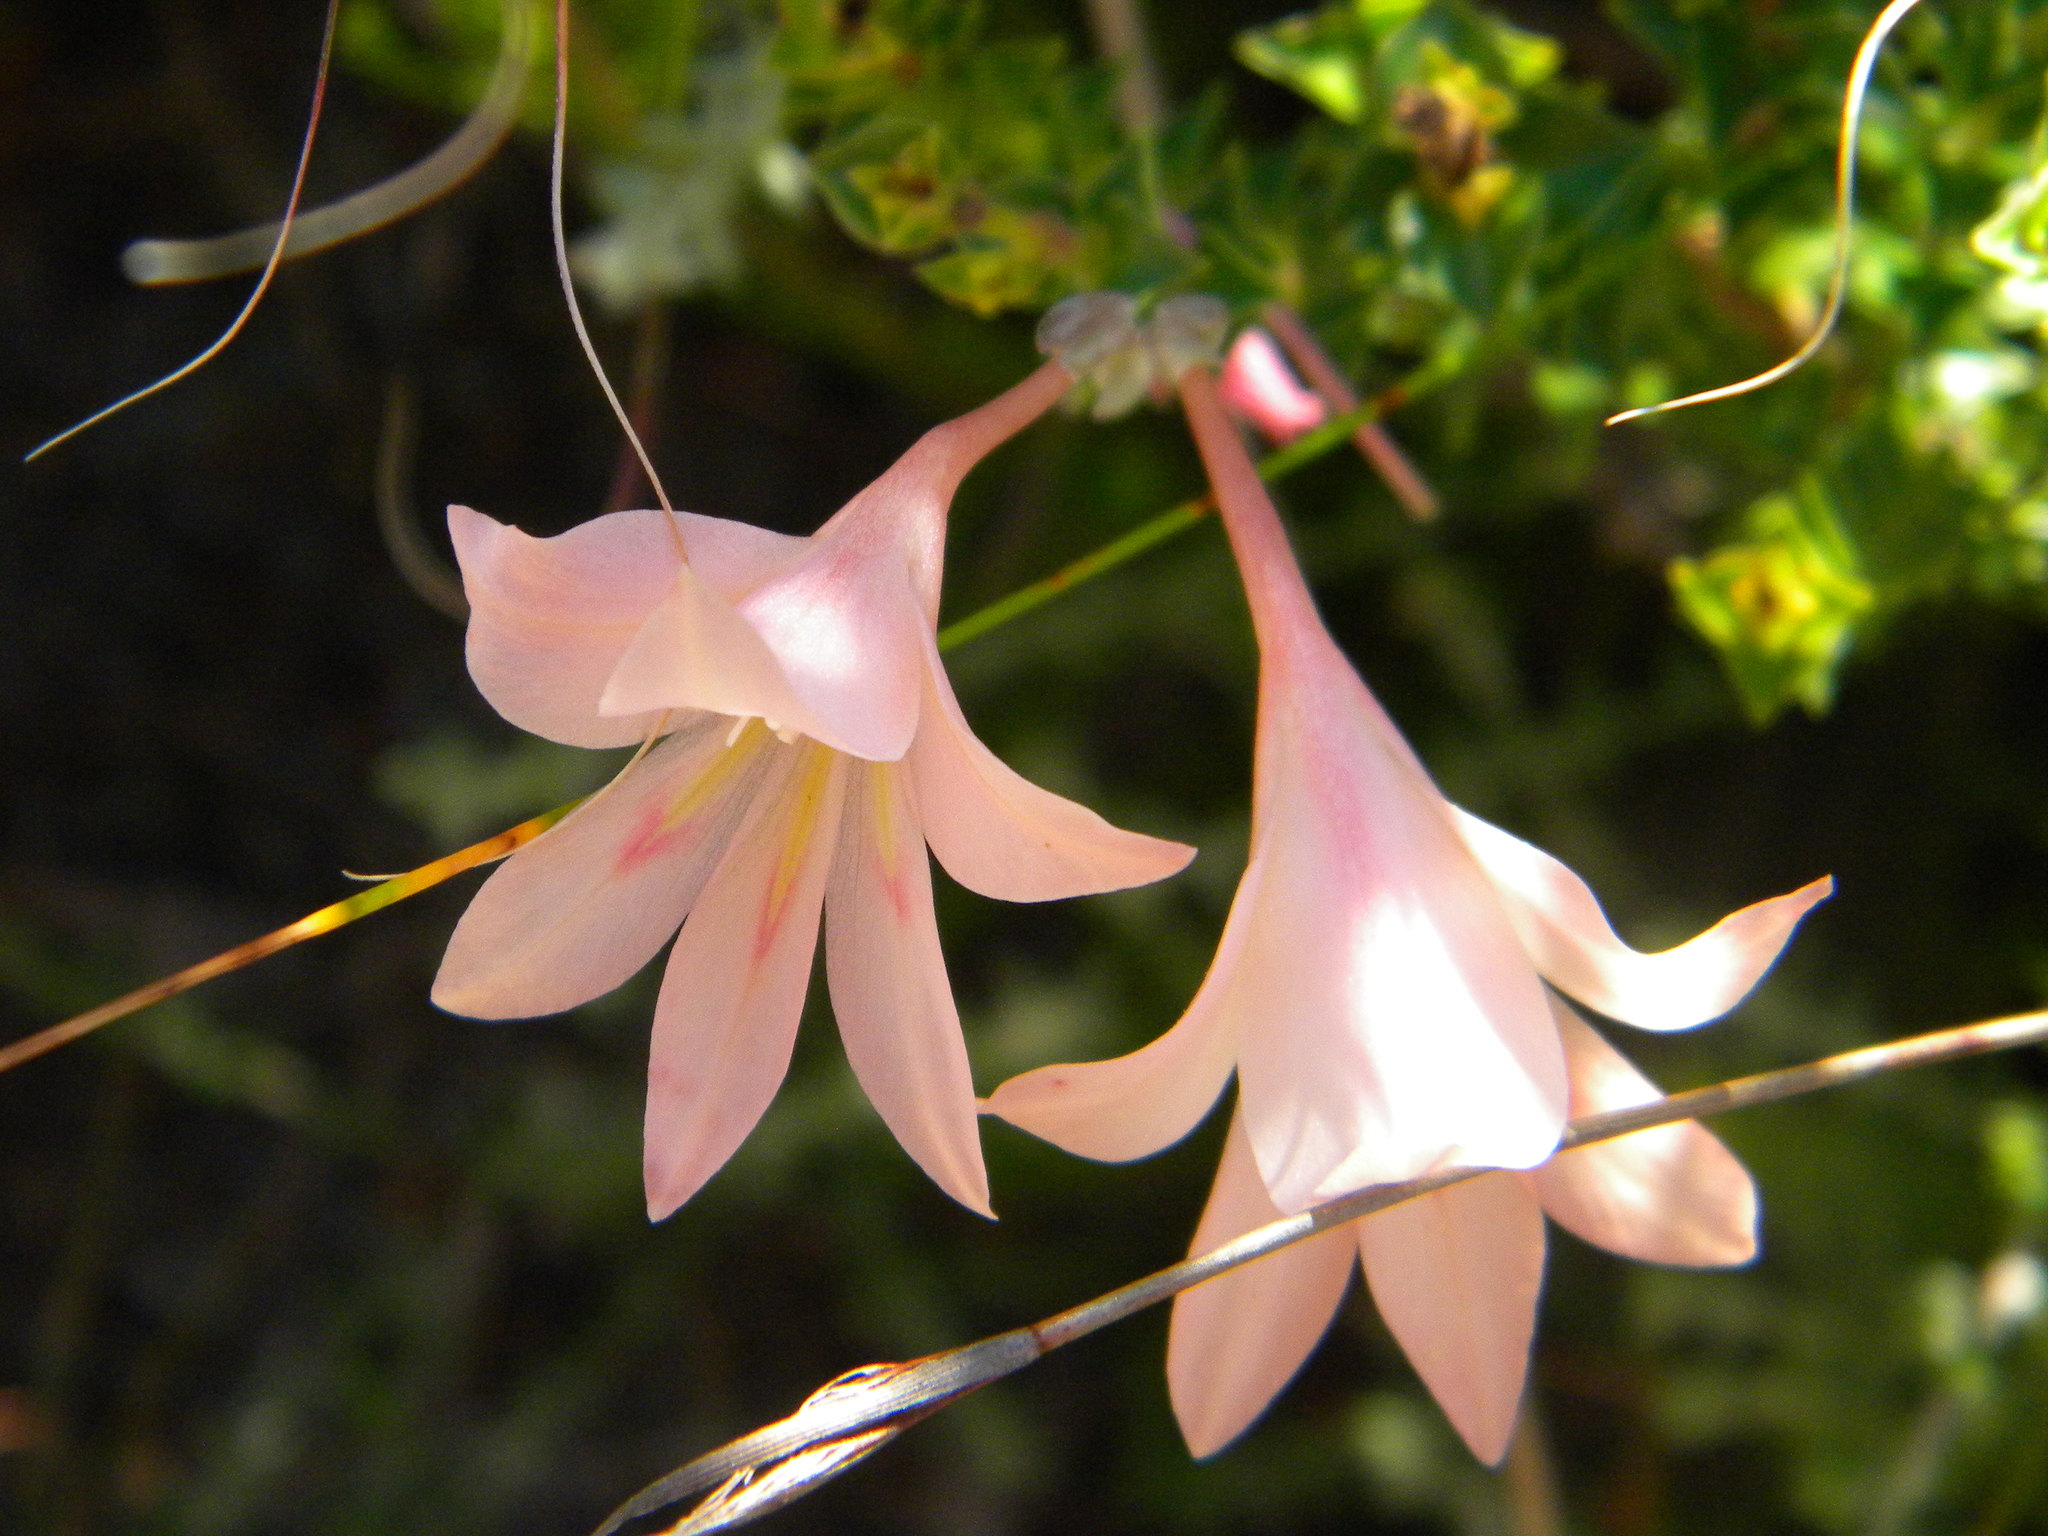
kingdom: Plantae
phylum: Tracheophyta
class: Liliopsida
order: Asparagales
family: Iridaceae
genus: Gladiolus
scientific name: Gladiolus monticola
